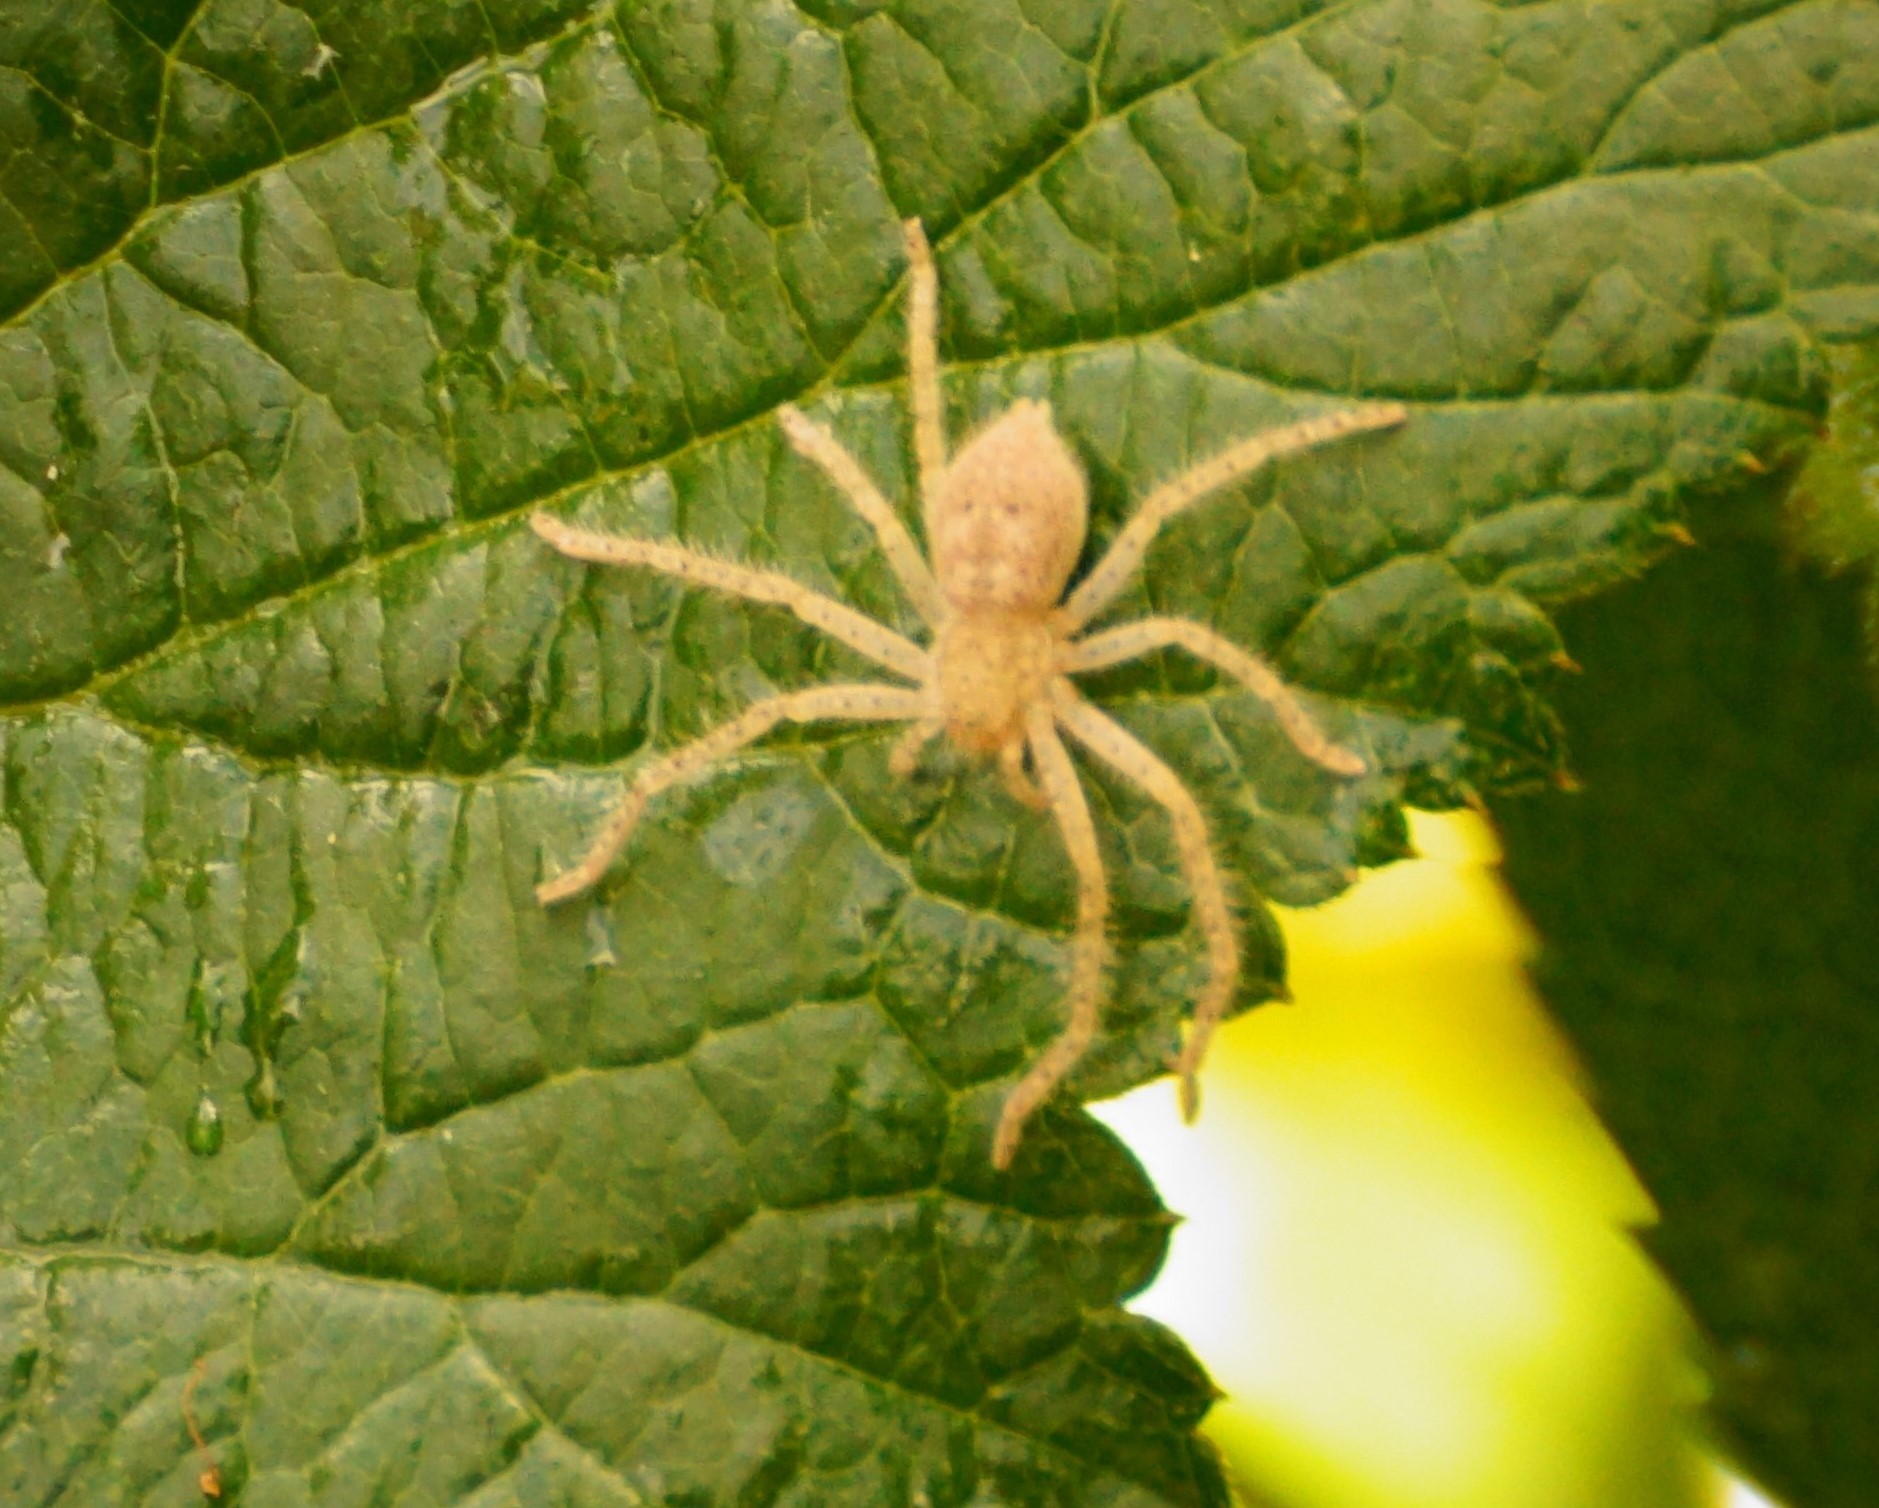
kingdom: Animalia
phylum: Arthropoda
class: Arachnida
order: Araneae
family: Sparassidae
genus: Neosparassus
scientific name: Neosparassus
